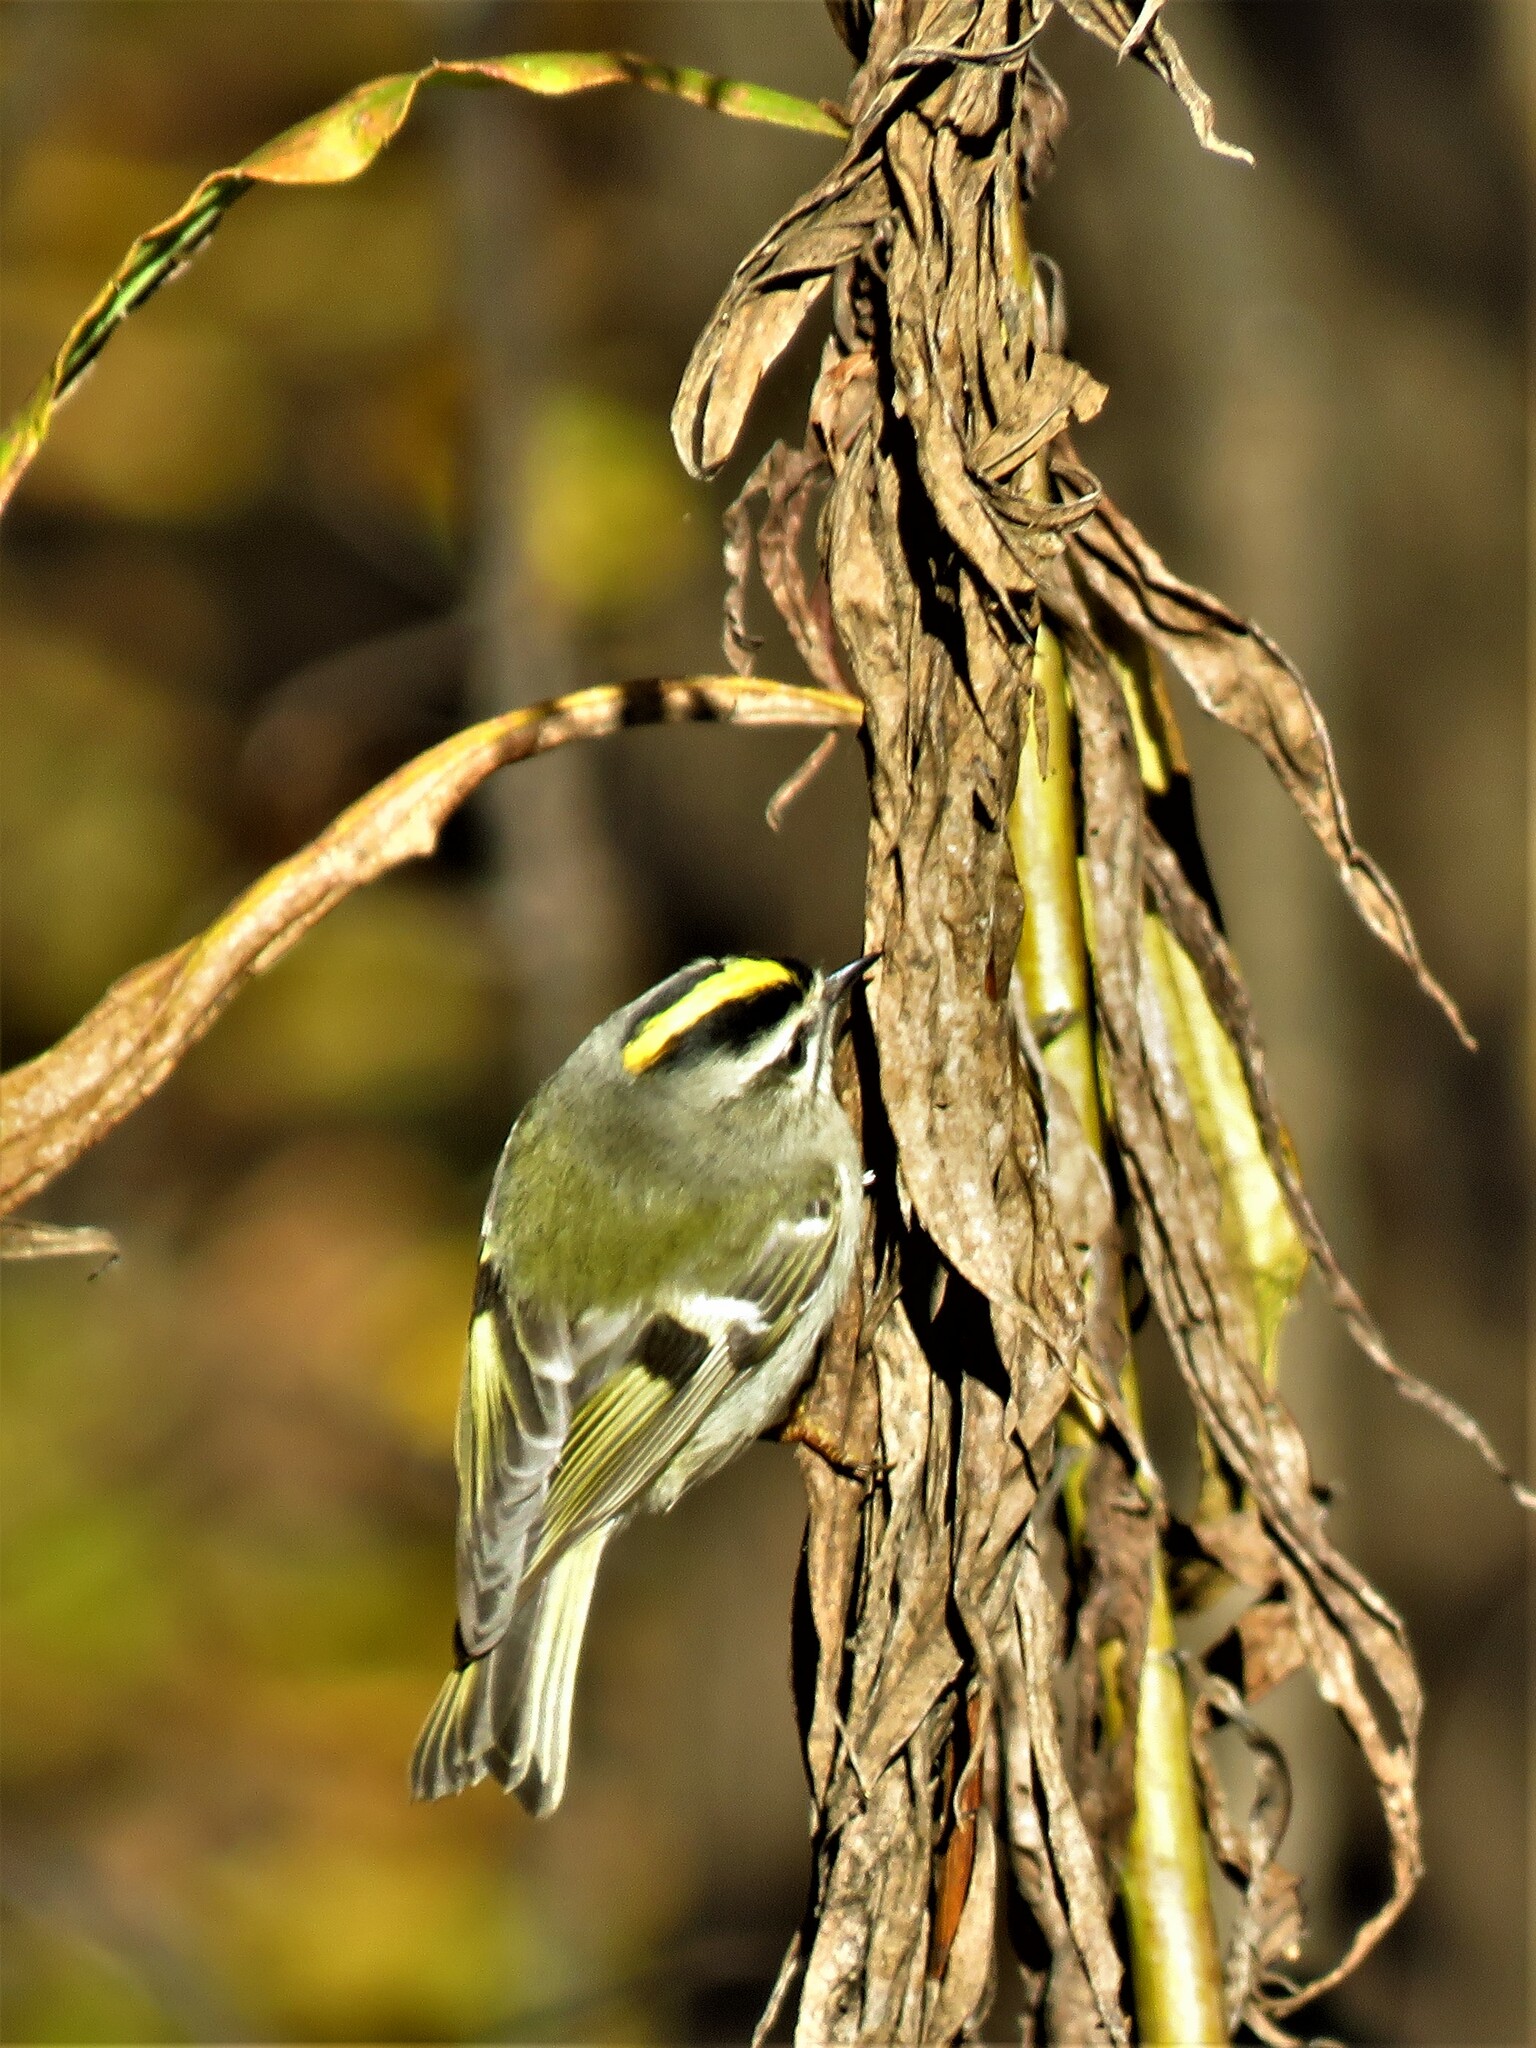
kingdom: Animalia
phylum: Chordata
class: Aves
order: Passeriformes
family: Regulidae
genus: Regulus
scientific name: Regulus satrapa
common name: Golden-crowned kinglet
